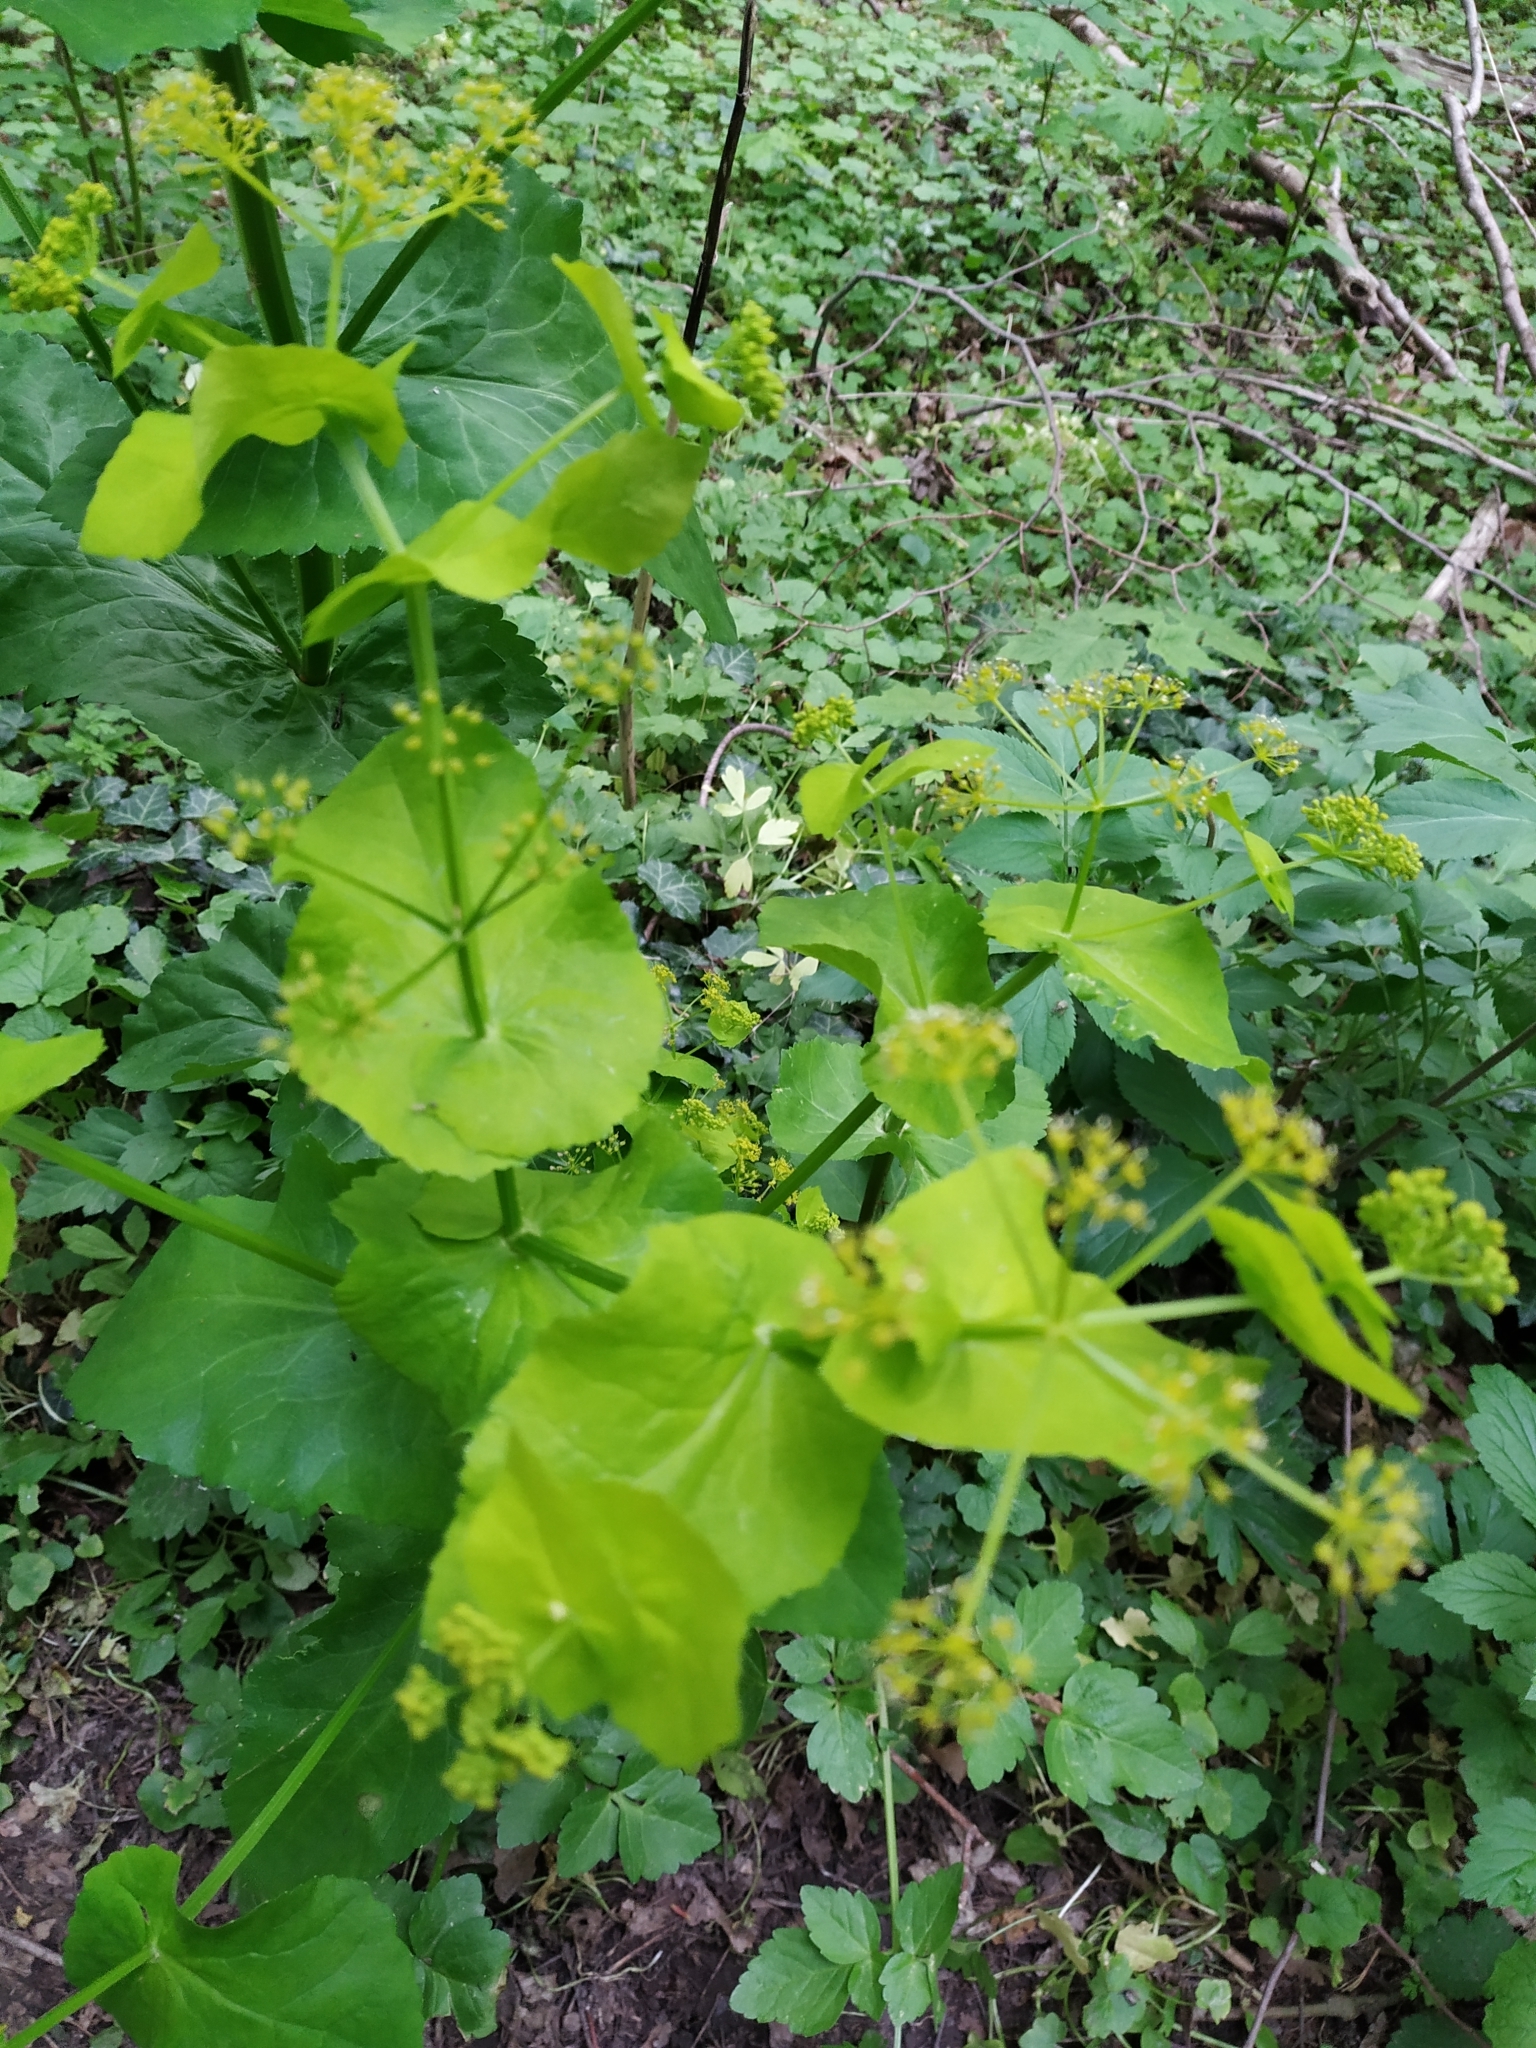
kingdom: Plantae
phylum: Tracheophyta
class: Magnoliopsida
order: Apiales
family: Apiaceae
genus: Smyrnium
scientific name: Smyrnium perfoliatum
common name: Perfoliate alexanders
